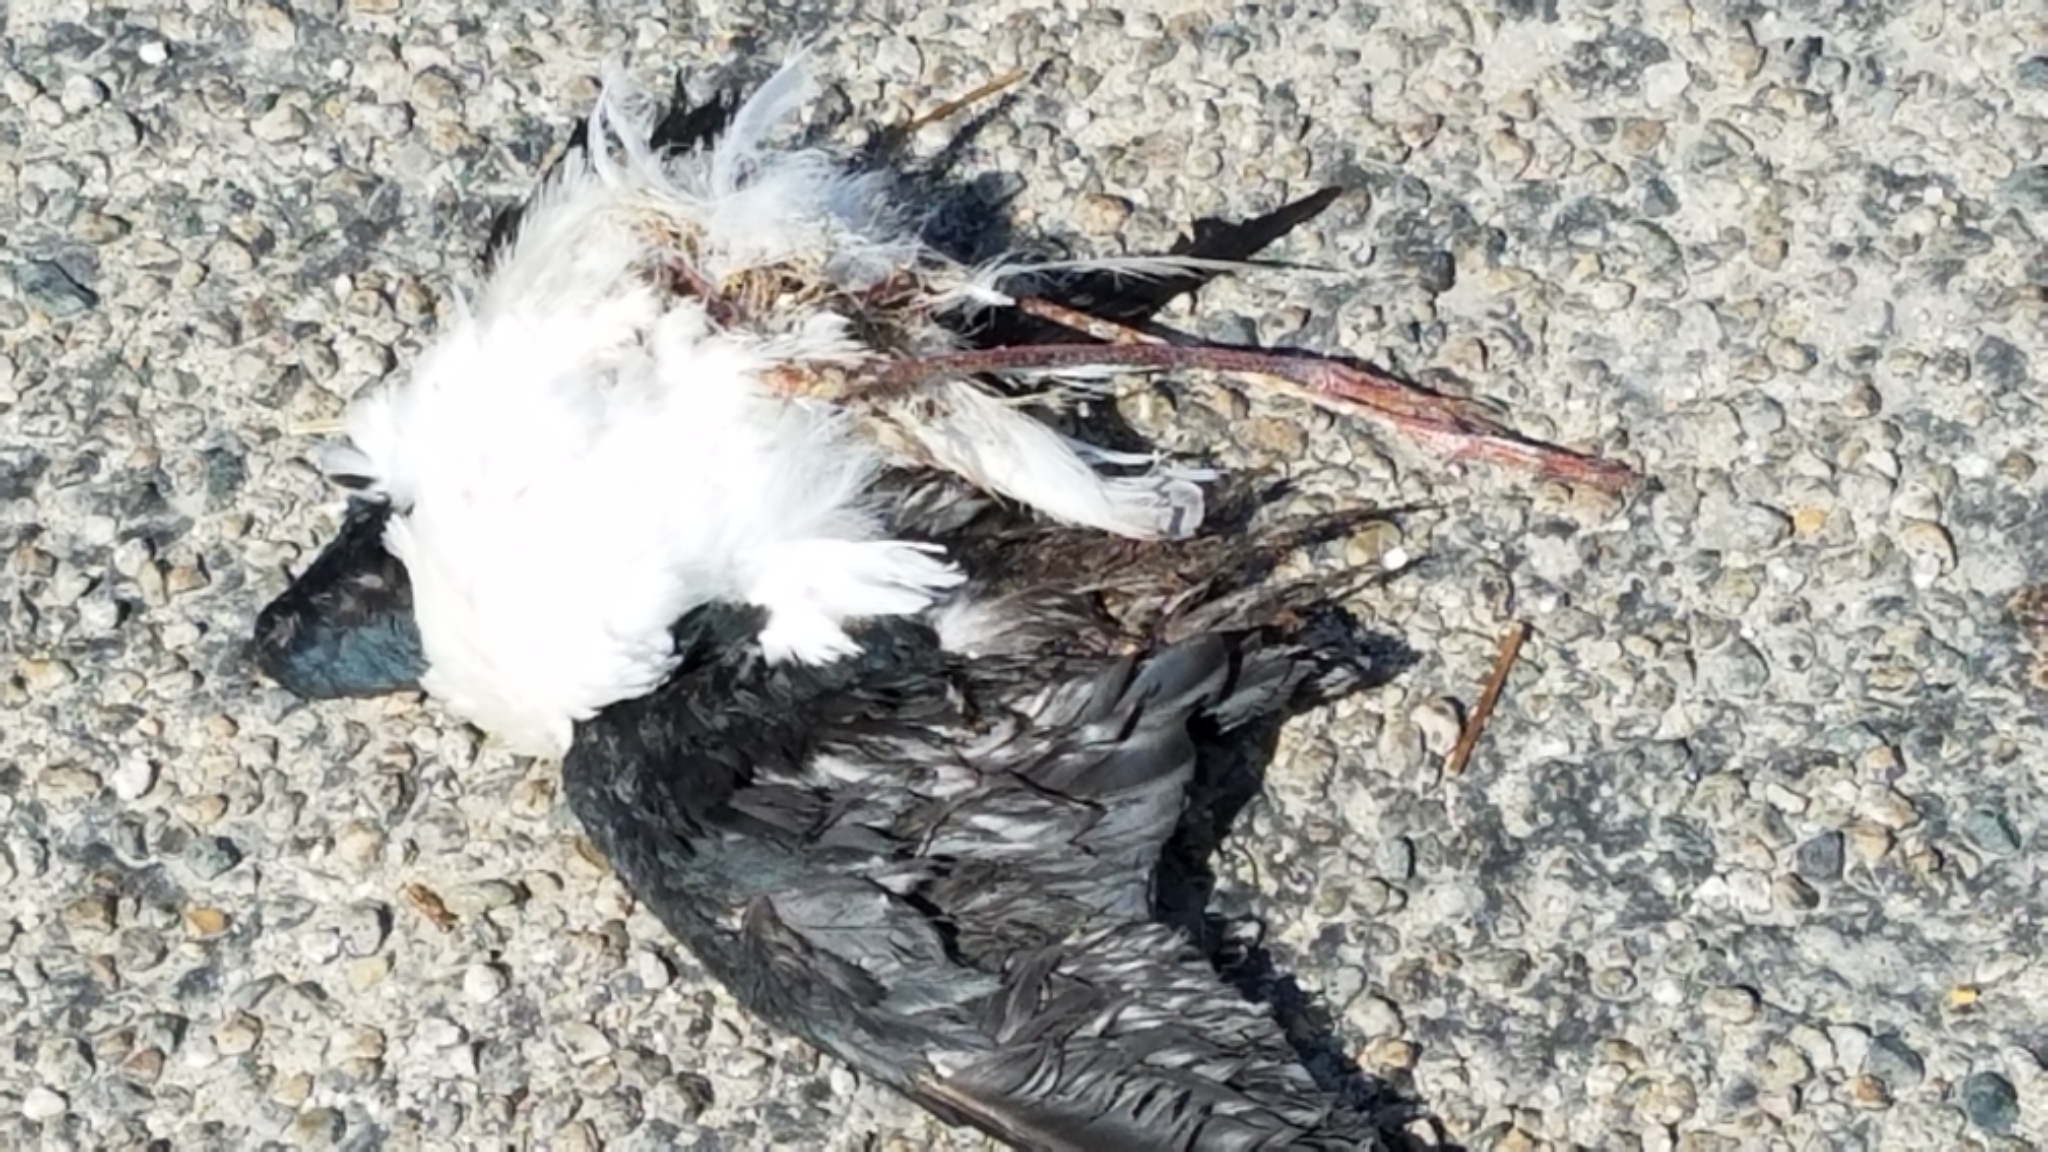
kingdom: Animalia
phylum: Chordata
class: Aves
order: Charadriiformes
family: Recurvirostridae
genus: Himantopus
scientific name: Himantopus mexicanus
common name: Black-necked stilt
